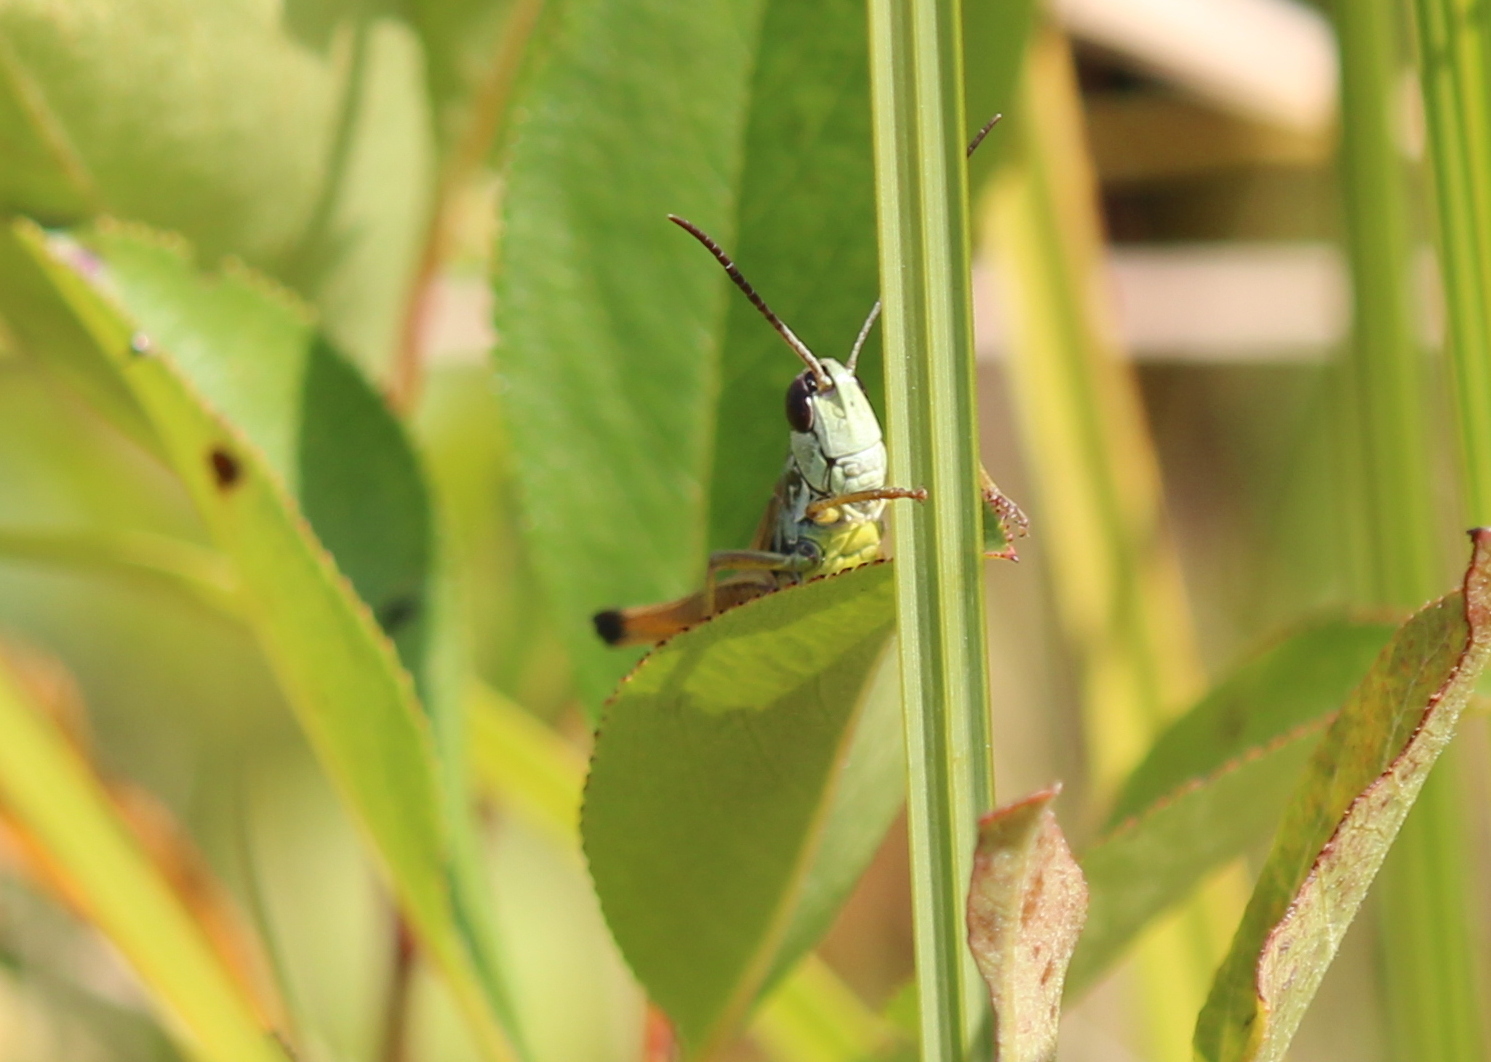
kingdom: Animalia
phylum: Arthropoda
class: Insecta
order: Orthoptera
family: Acrididae
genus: Pseudochorthippus
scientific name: Pseudochorthippus curtipennis
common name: Marsh meadow grasshopper
